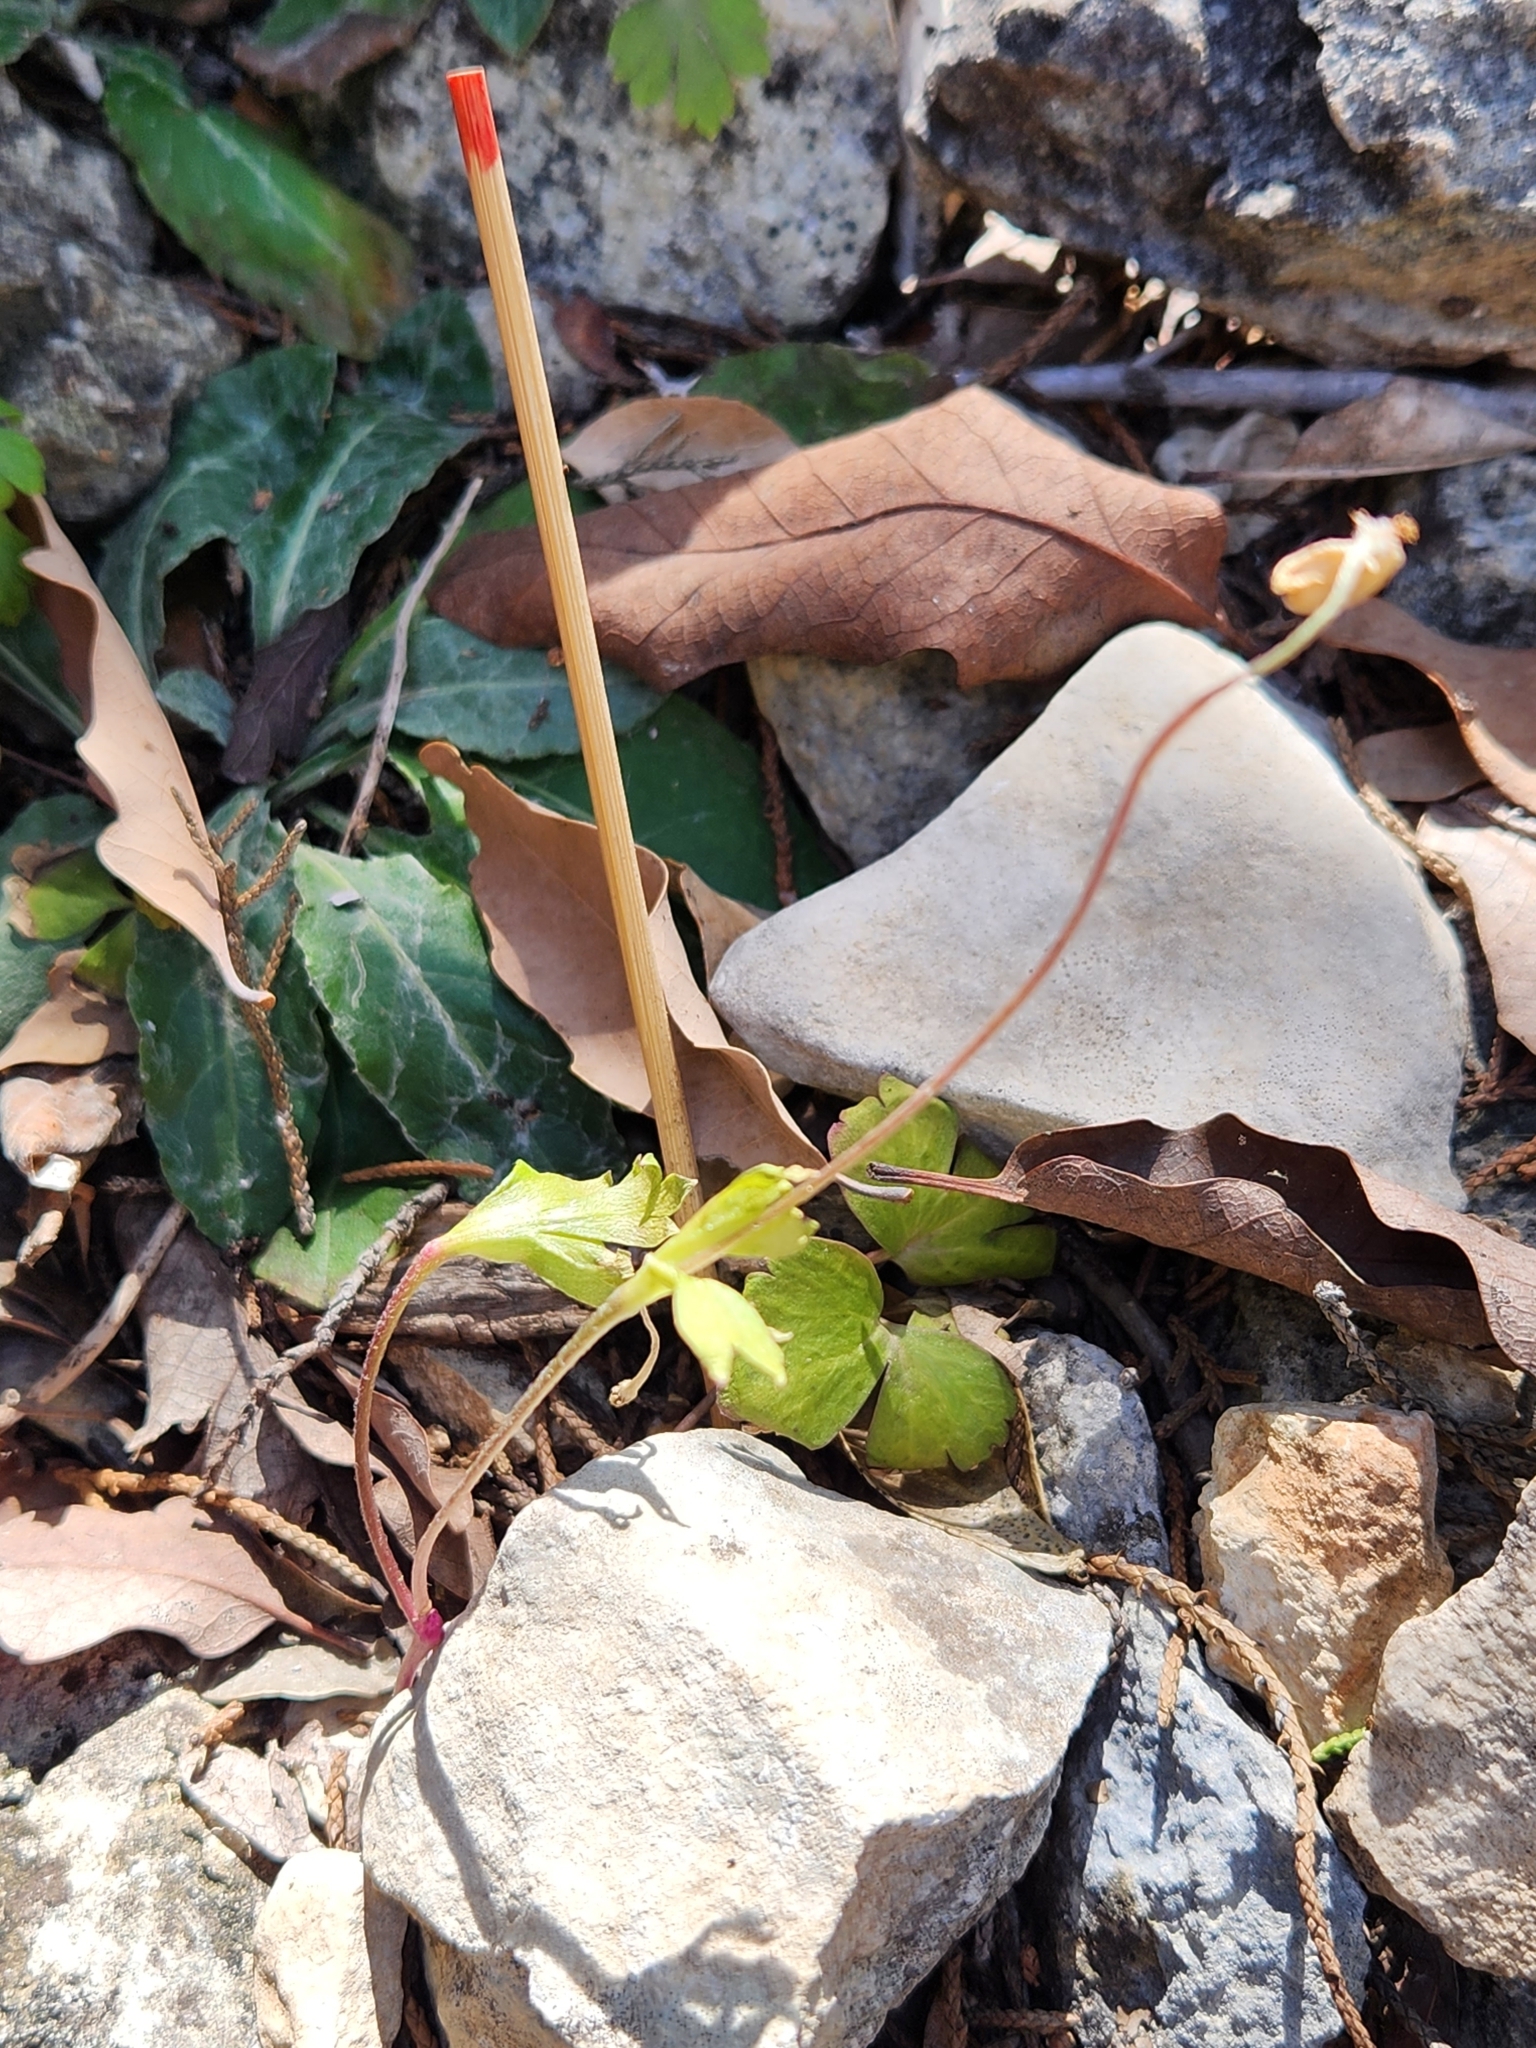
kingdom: Plantae
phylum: Tracheophyta
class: Magnoliopsida
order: Ranunculales
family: Ranunculaceae
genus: Anemone
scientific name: Anemone edwardsiana
